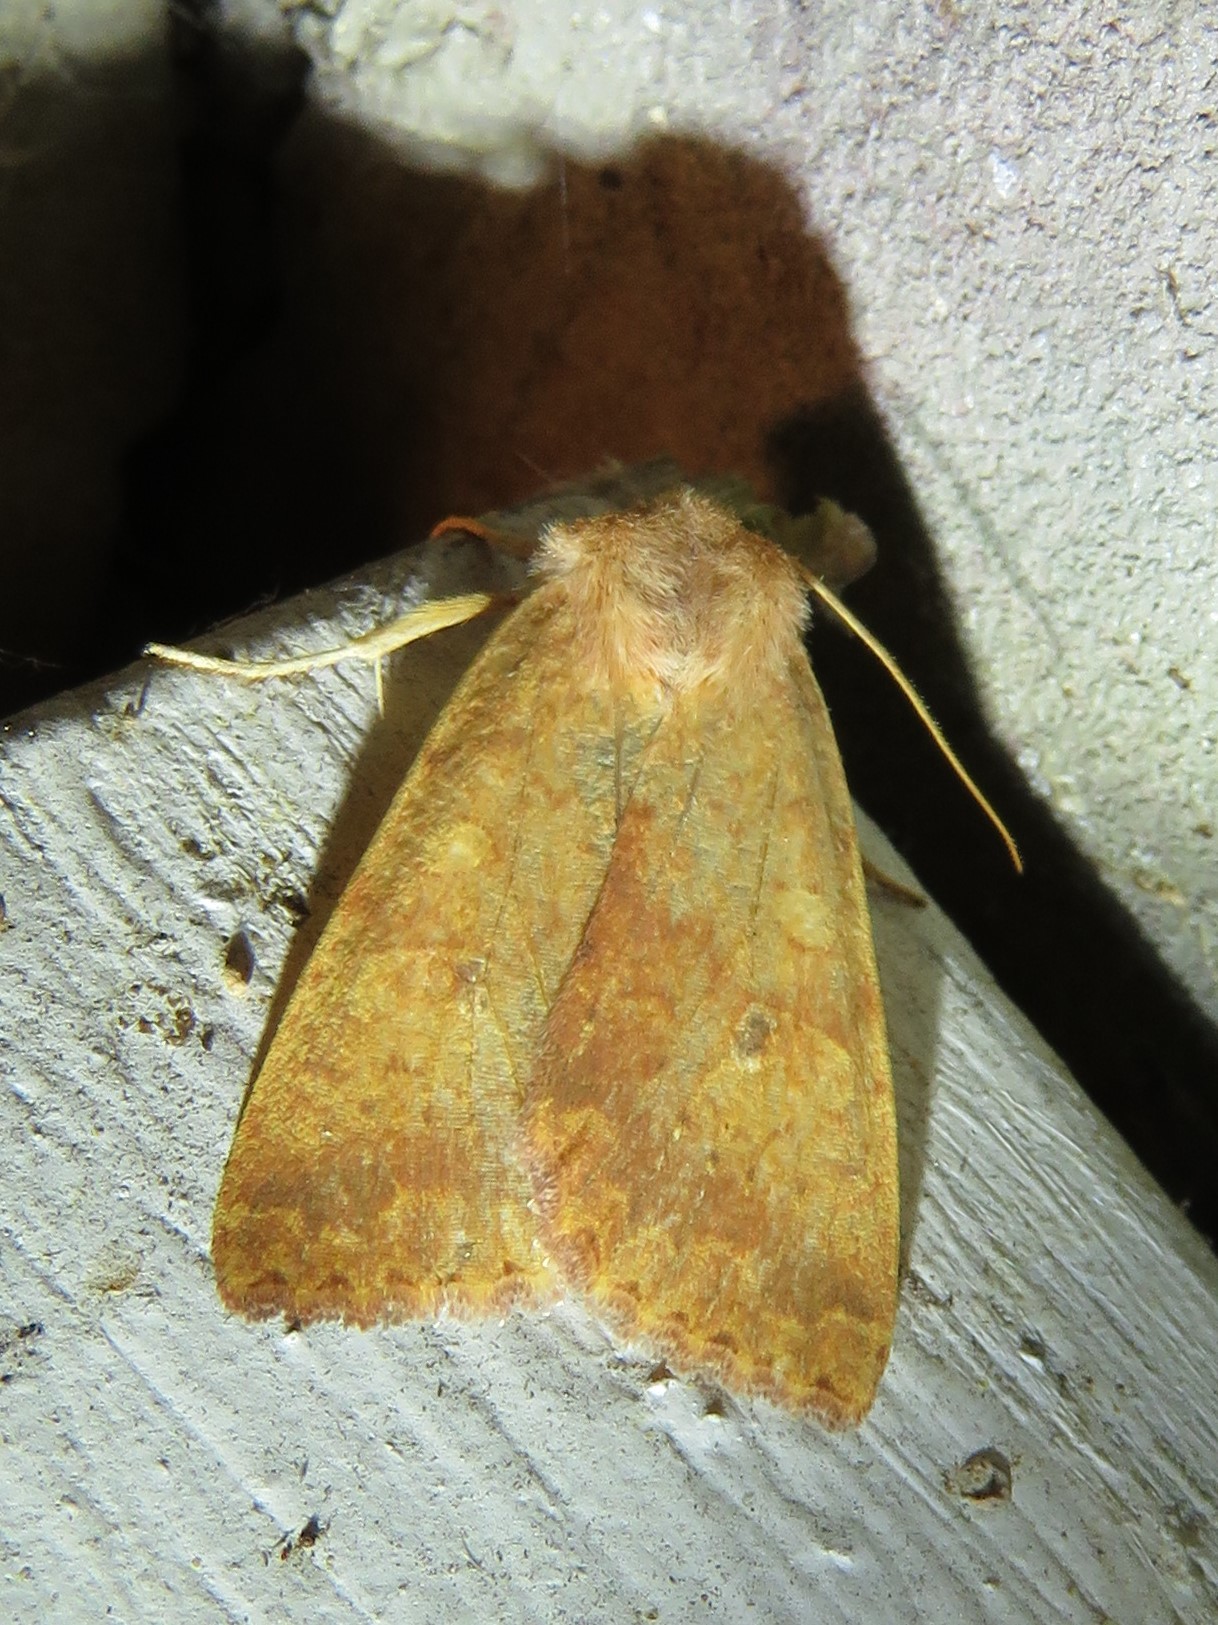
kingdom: Animalia
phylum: Arthropoda
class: Insecta
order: Lepidoptera
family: Noctuidae
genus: Agrochola
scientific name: Agrochola bicolorago
